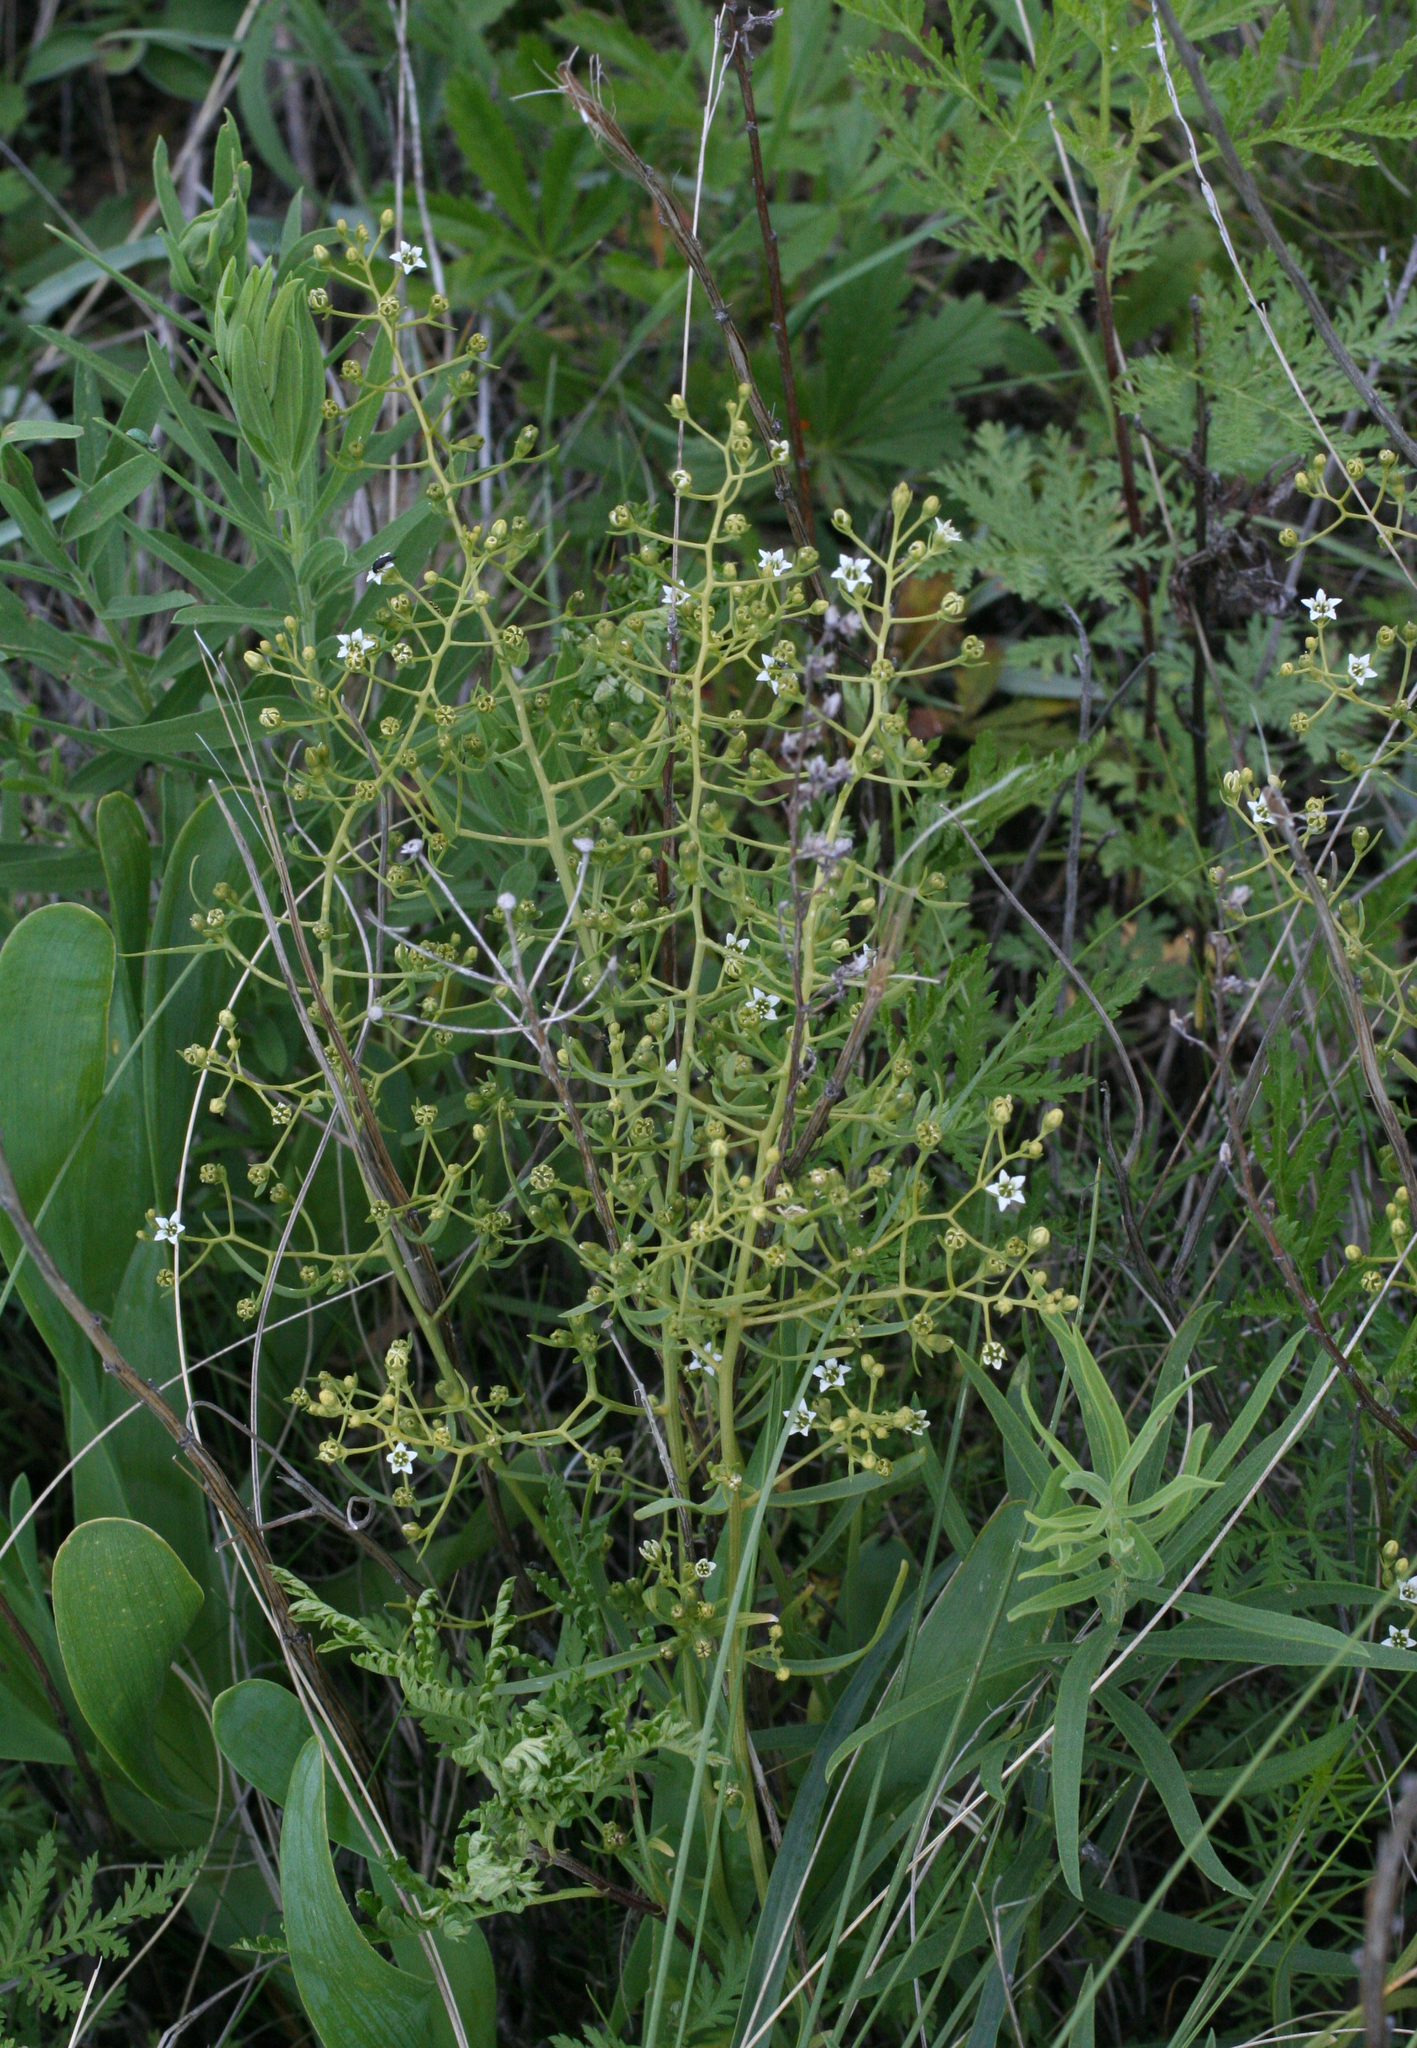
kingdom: Plantae
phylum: Tracheophyta
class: Magnoliopsida
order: Santalales
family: Thesiaceae
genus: Thesium
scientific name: Thesium refractum
